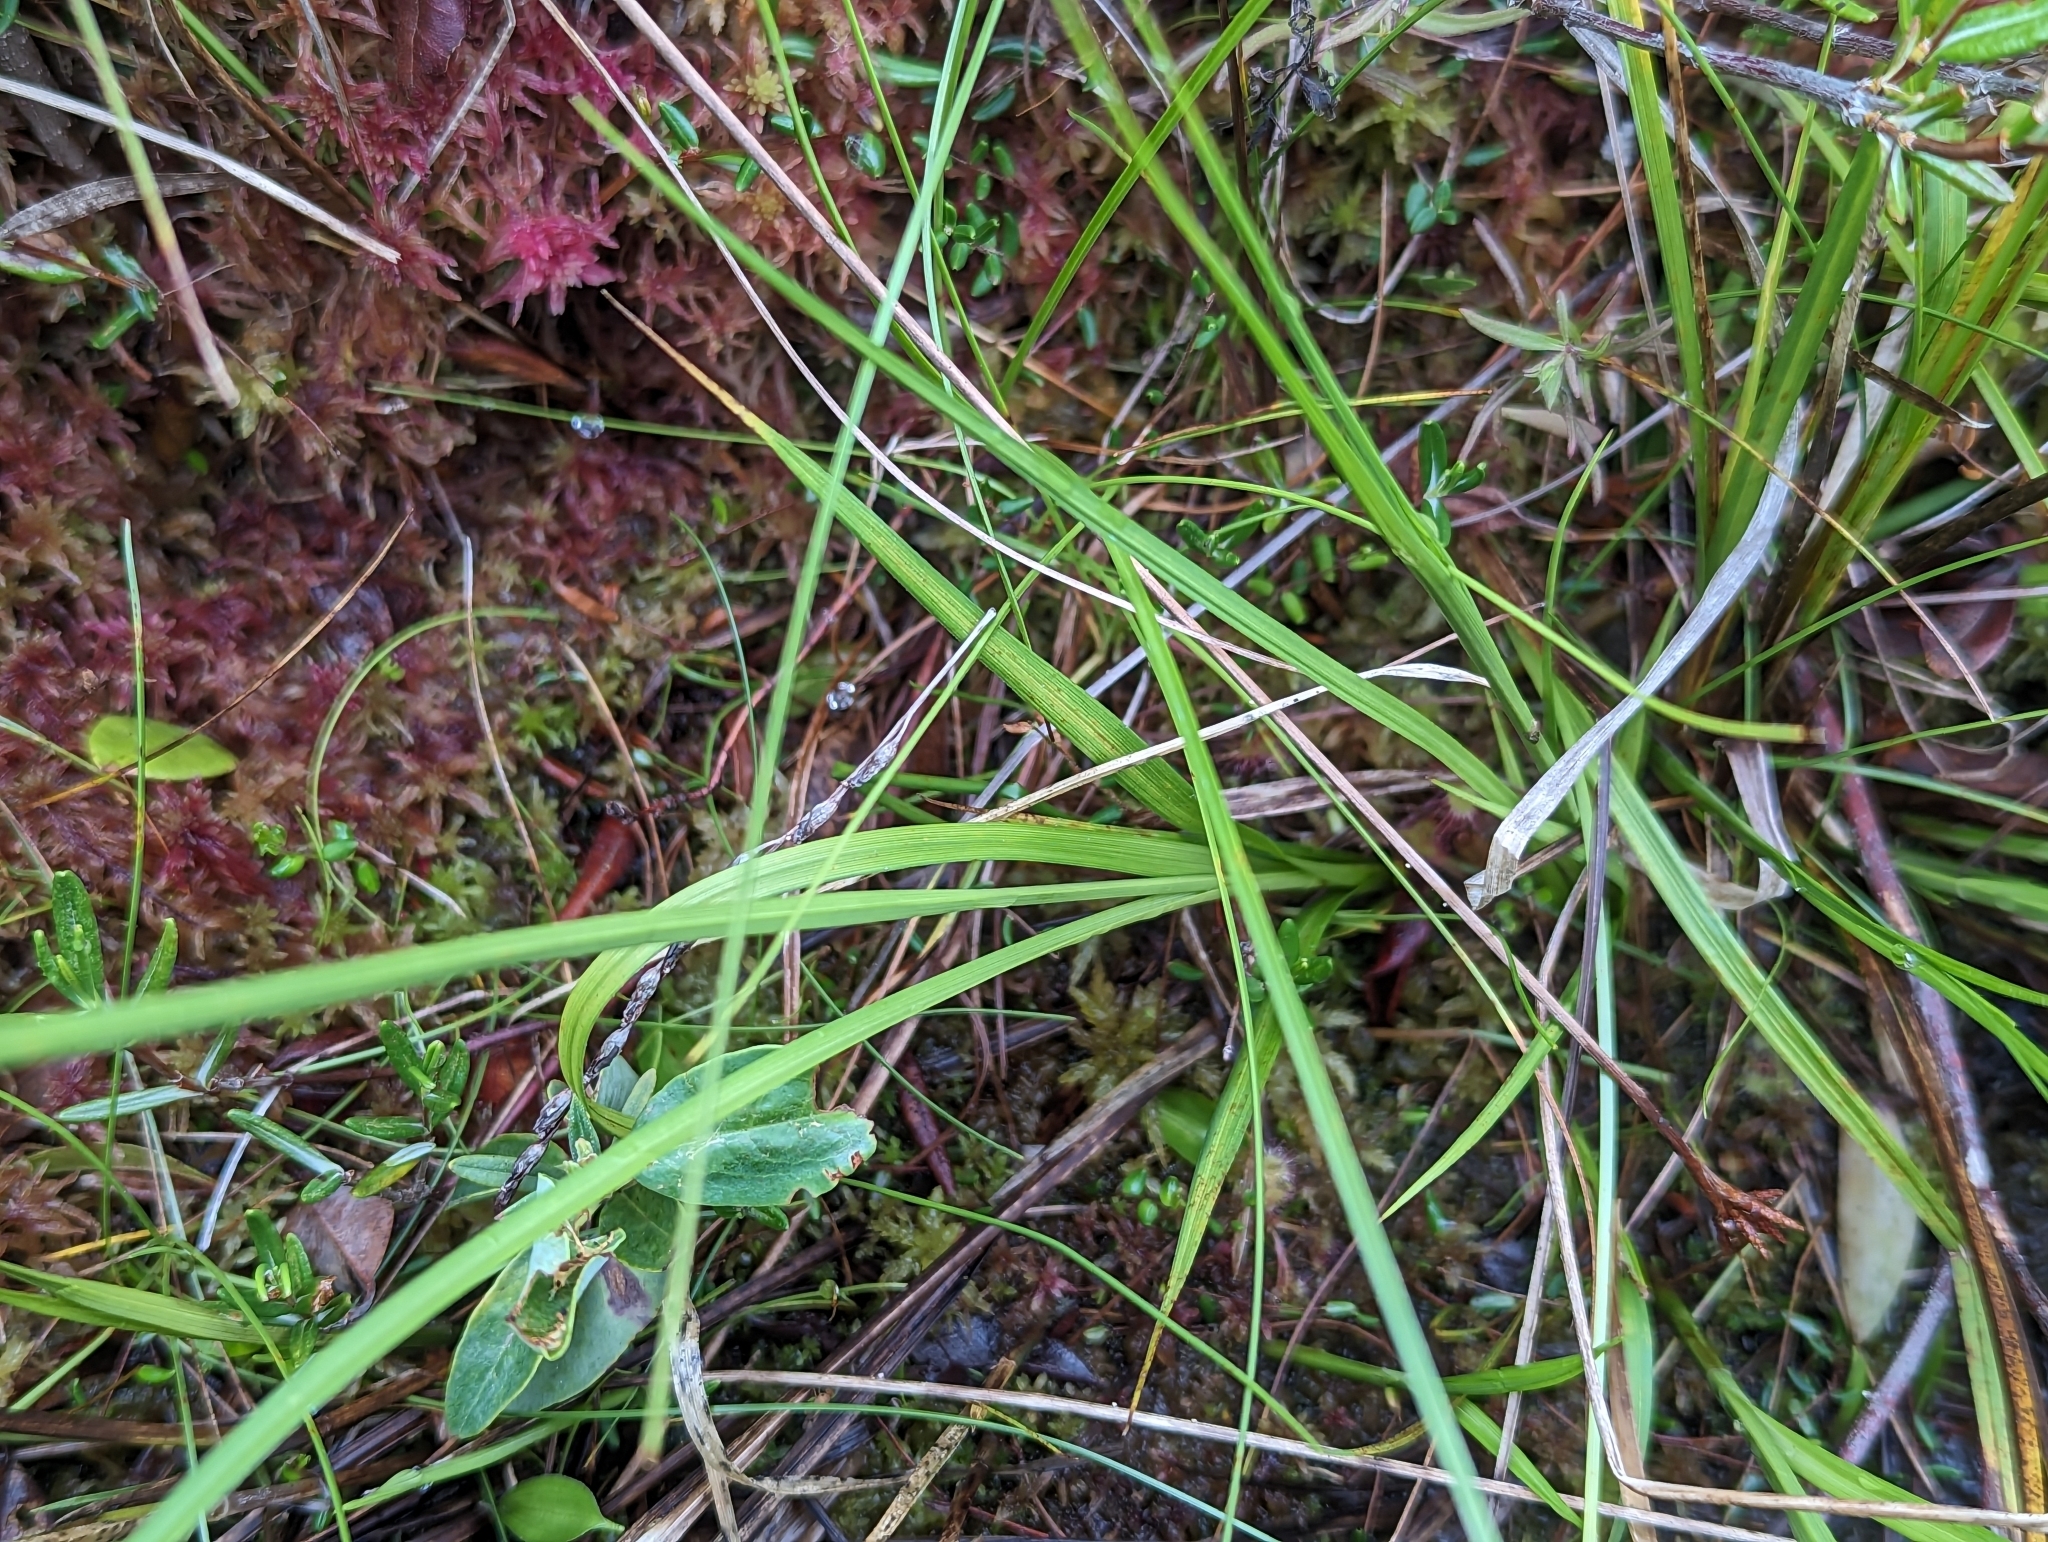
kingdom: Plantae
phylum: Tracheophyta
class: Liliopsida
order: Poales
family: Cyperaceae
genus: Carex
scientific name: Carex atlantica
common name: Atlantic sedge
